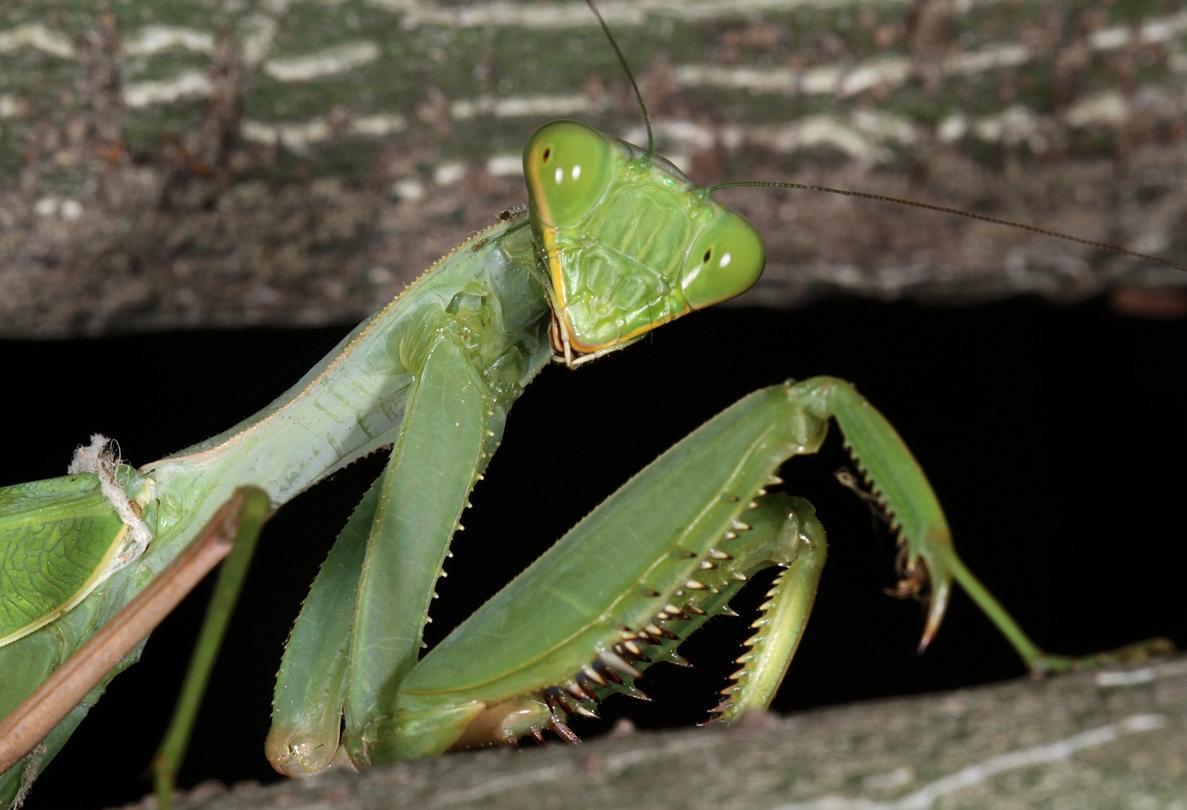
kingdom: Animalia
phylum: Arthropoda
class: Insecta
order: Mantodea
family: Mantidae
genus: Sphodromantis
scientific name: Sphodromantis gastrica
